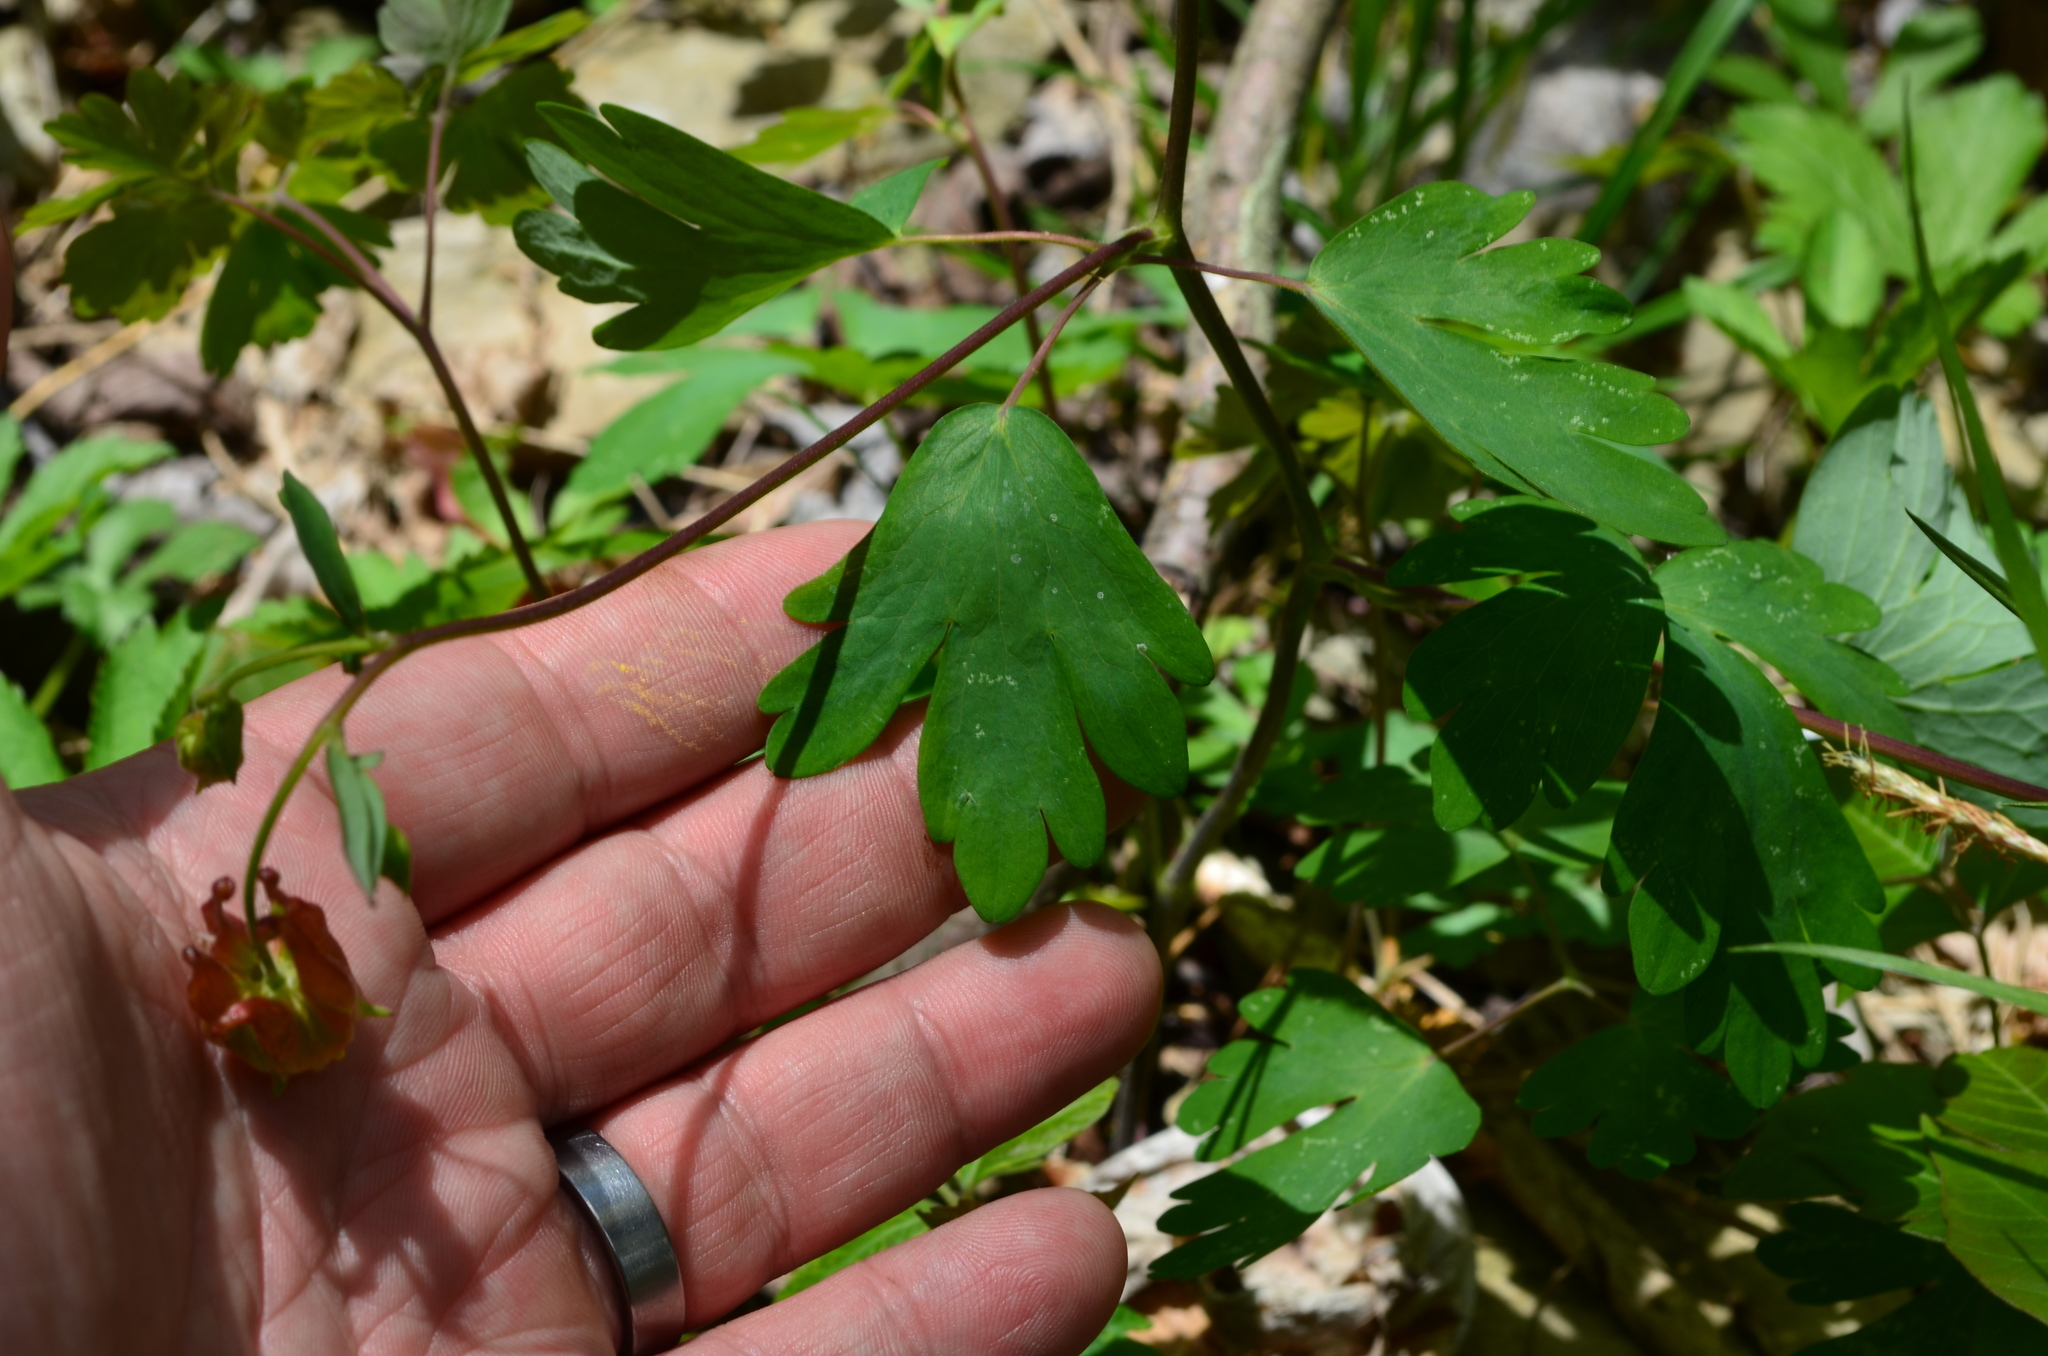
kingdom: Plantae
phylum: Tracheophyta
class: Magnoliopsida
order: Ranunculales
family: Ranunculaceae
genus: Aquilegia
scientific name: Aquilegia canadensis
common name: American columbine
